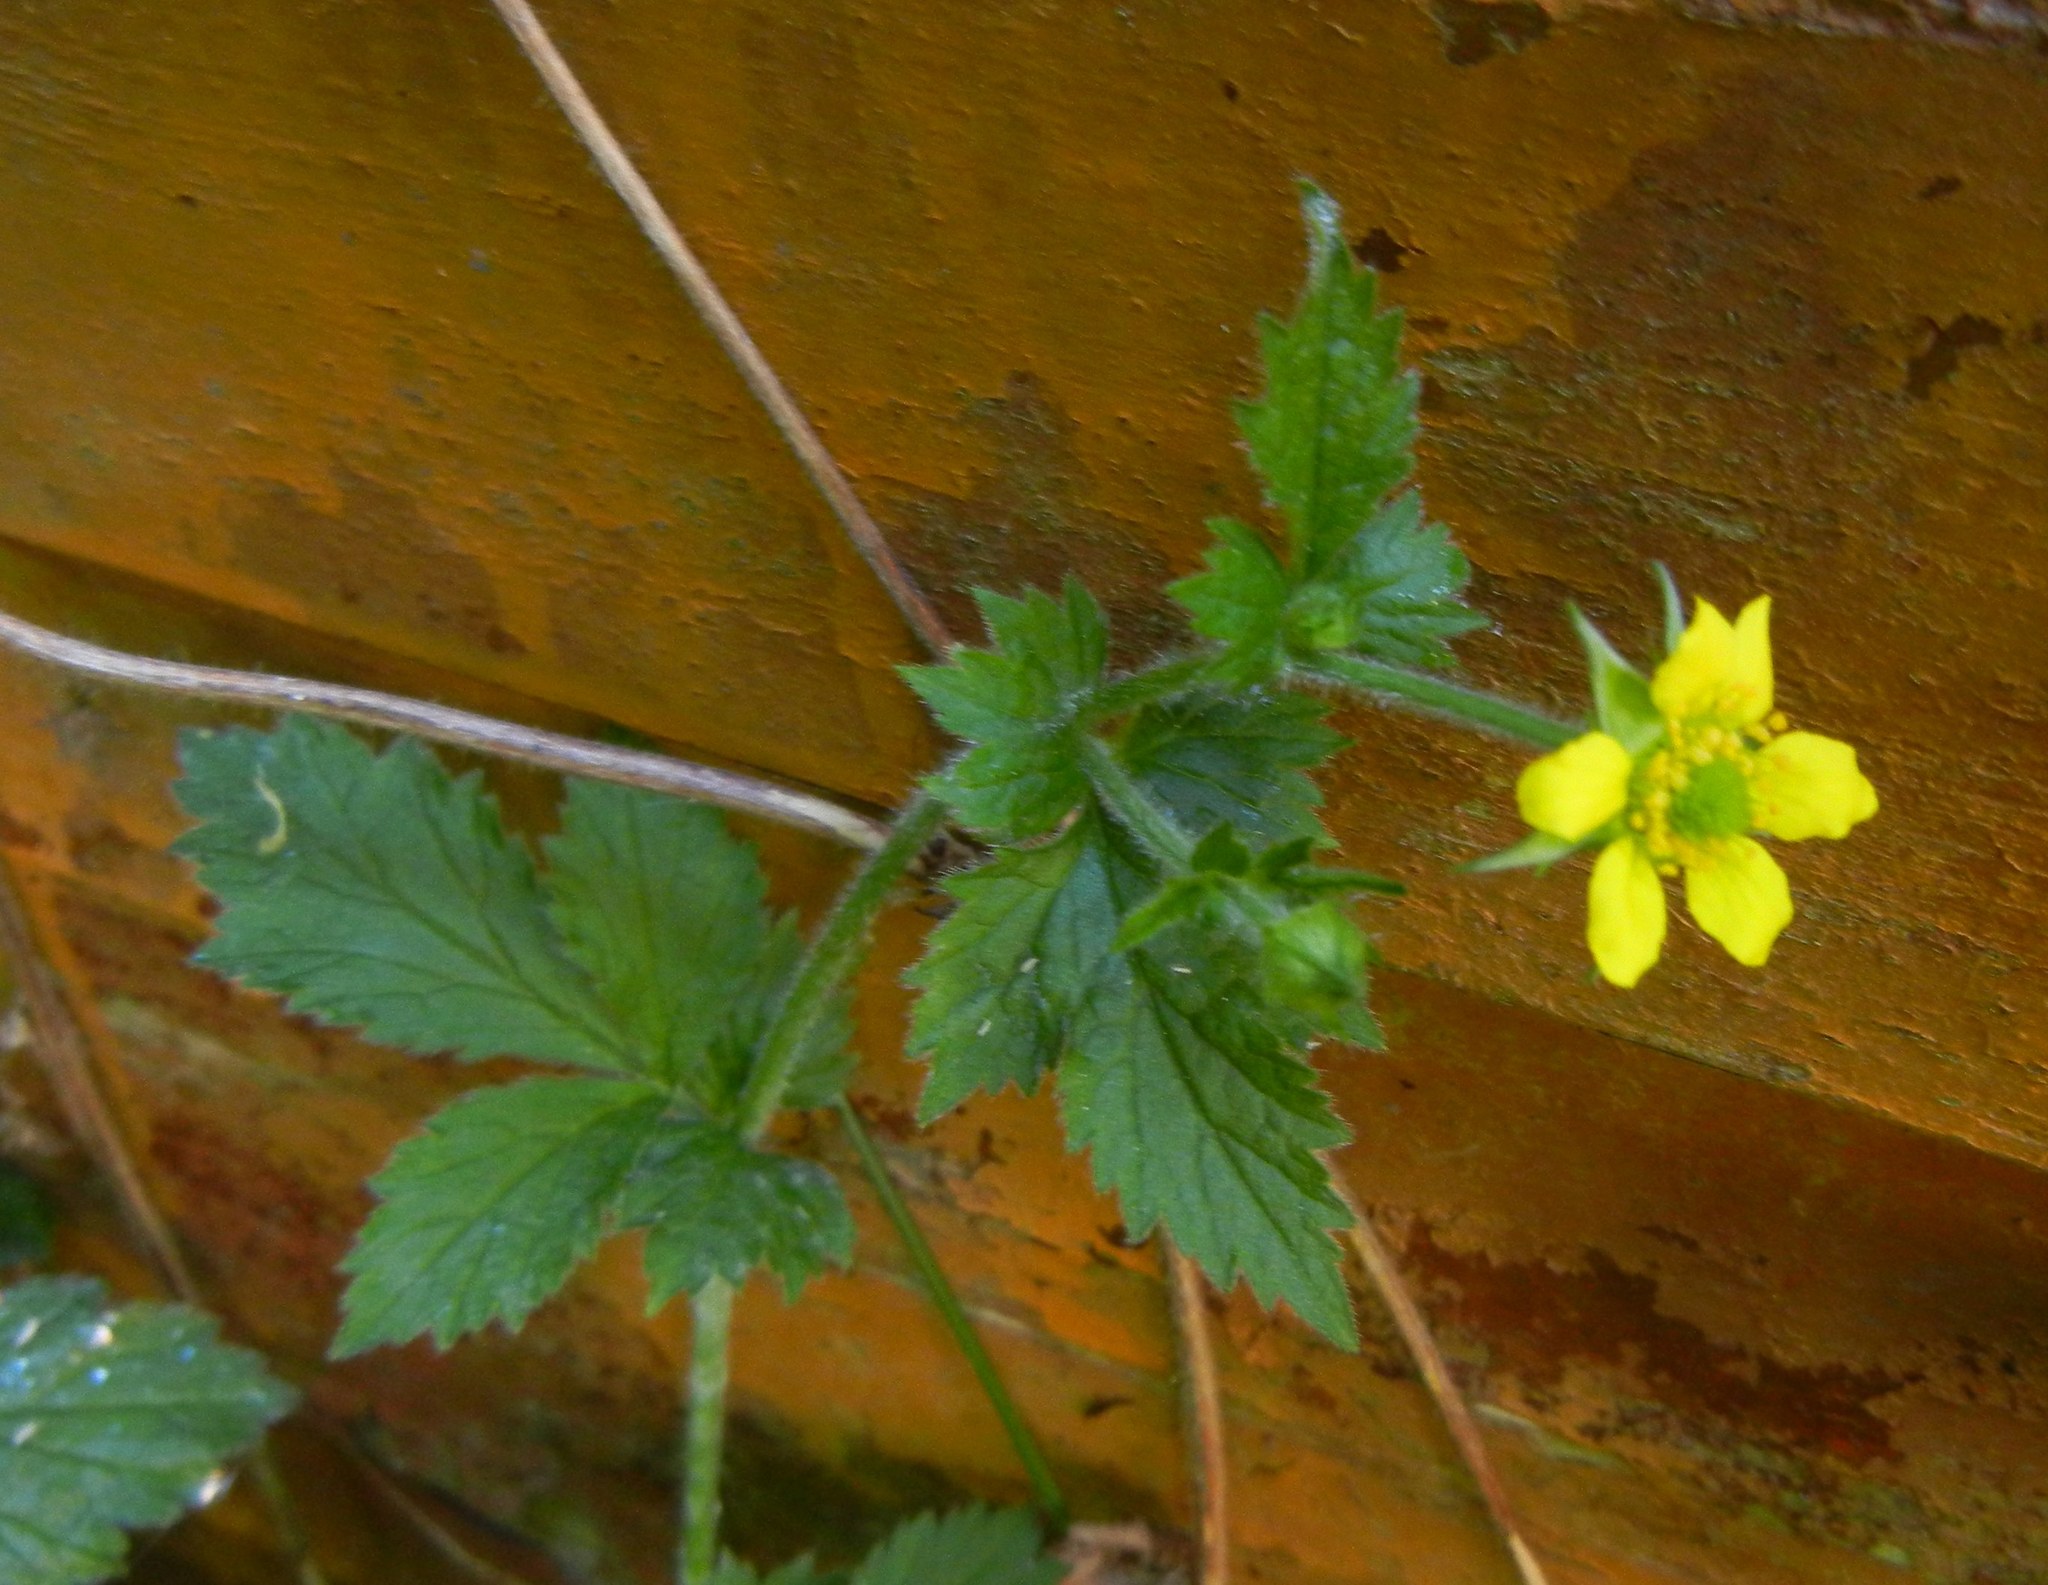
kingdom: Plantae
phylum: Tracheophyta
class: Magnoliopsida
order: Rosales
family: Rosaceae
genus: Geum
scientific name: Geum urbanum
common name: Wood avens
